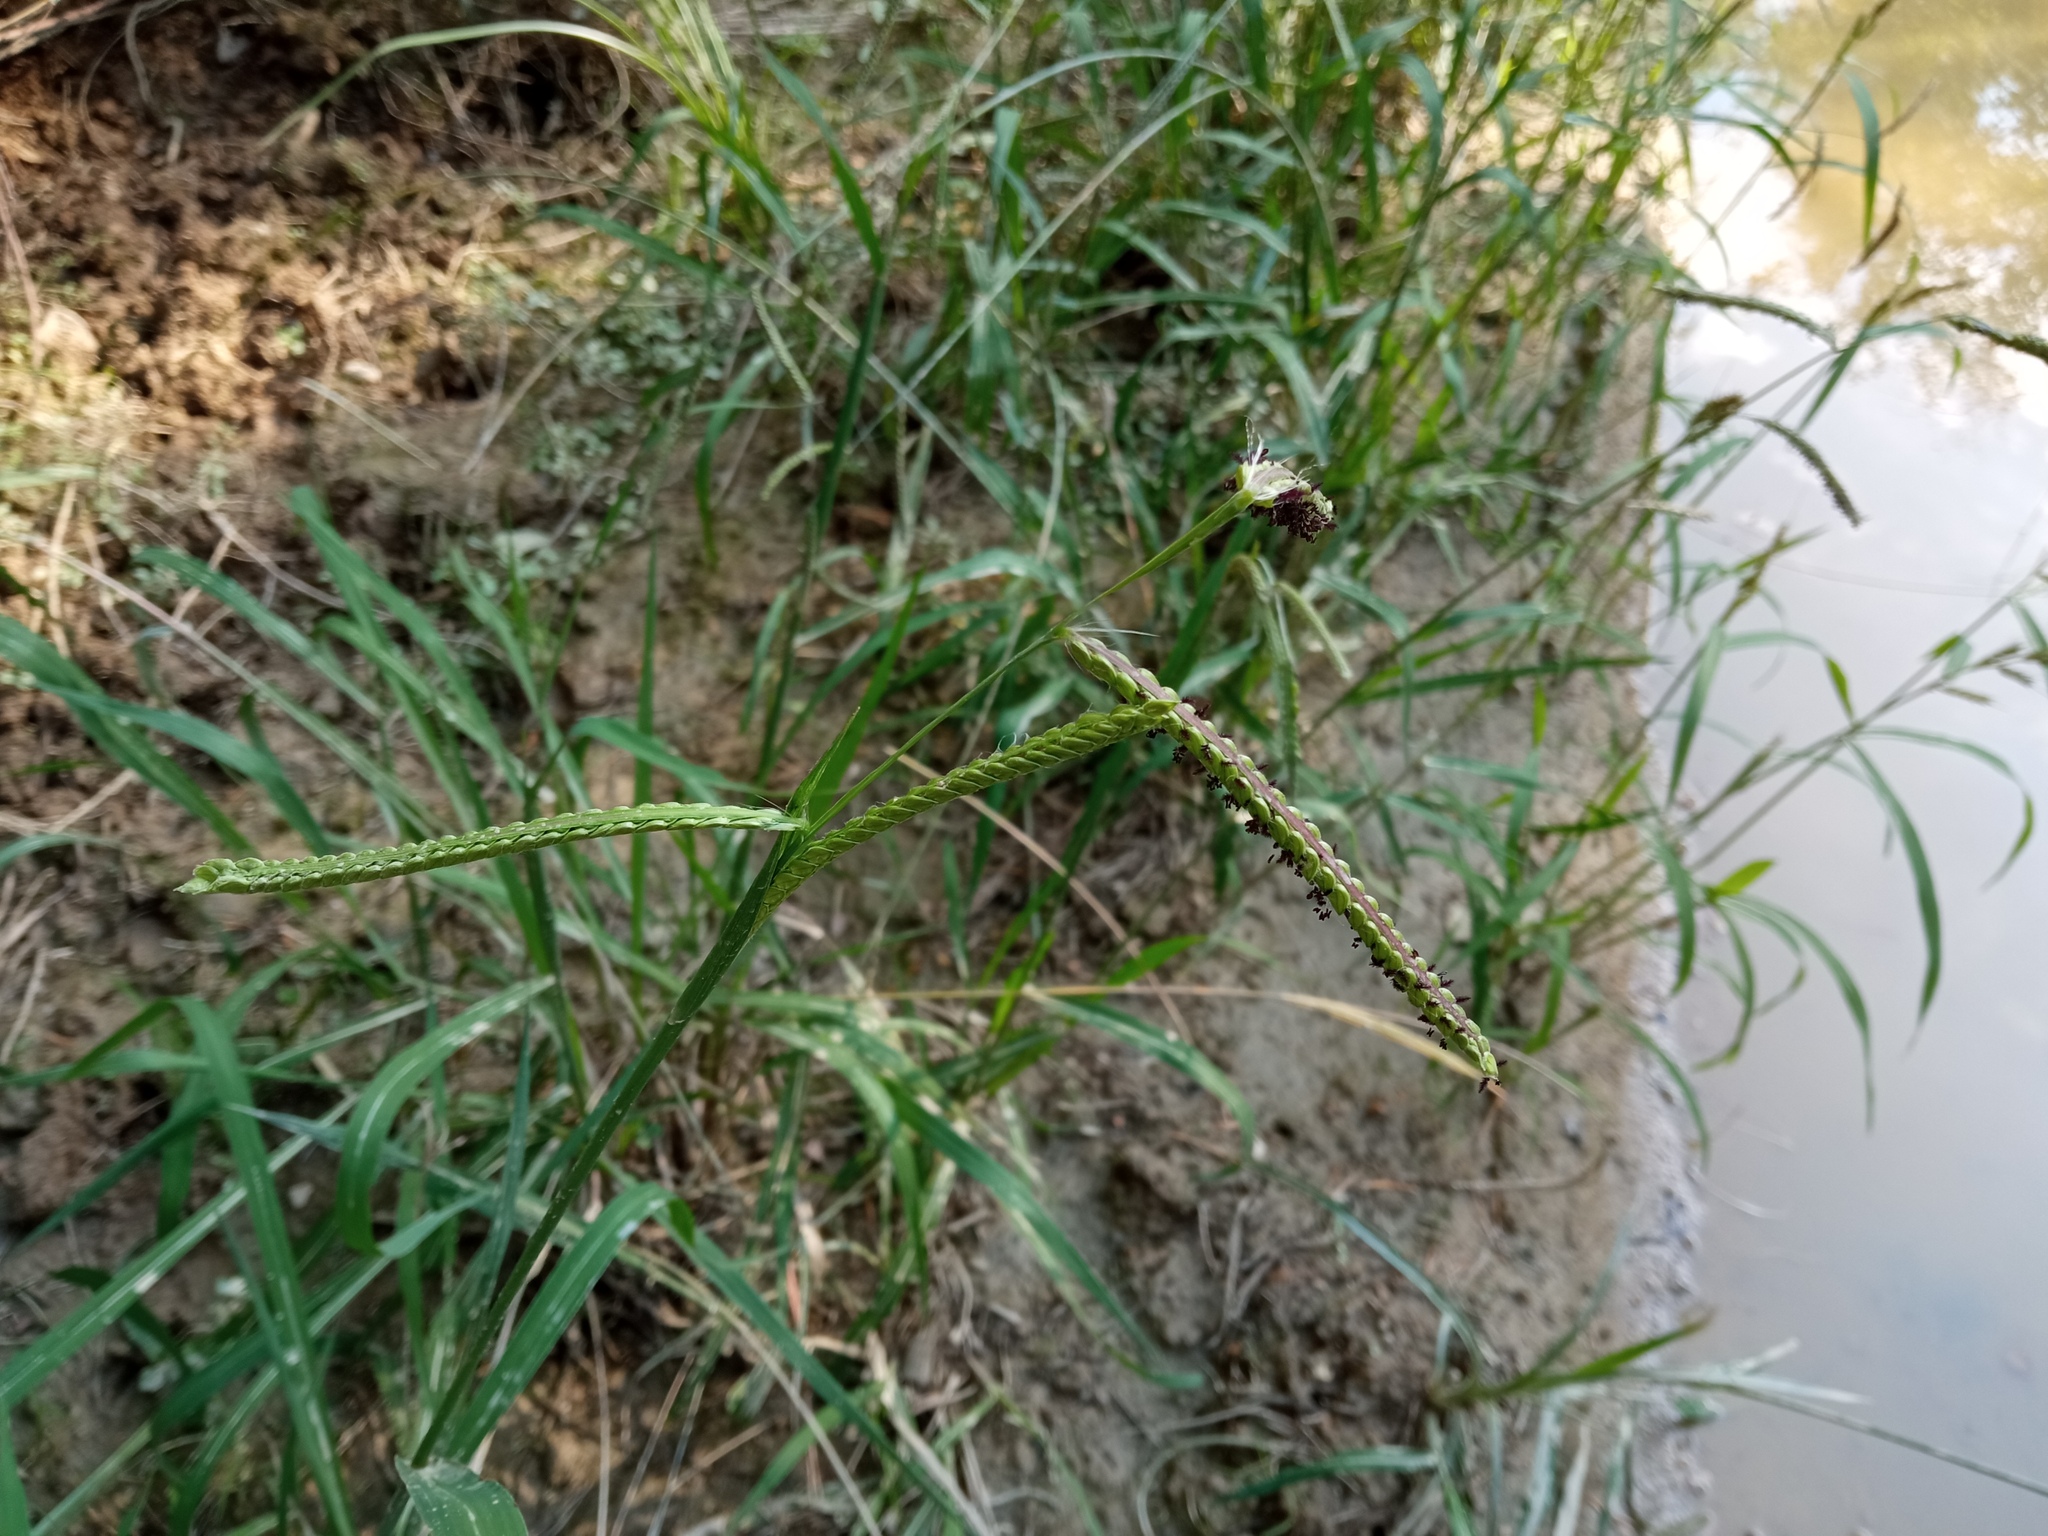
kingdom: Plantae
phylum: Tracheophyta
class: Liliopsida
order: Poales
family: Poaceae
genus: Paspalum
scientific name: Paspalum dilatatum
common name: Dallisgrass
